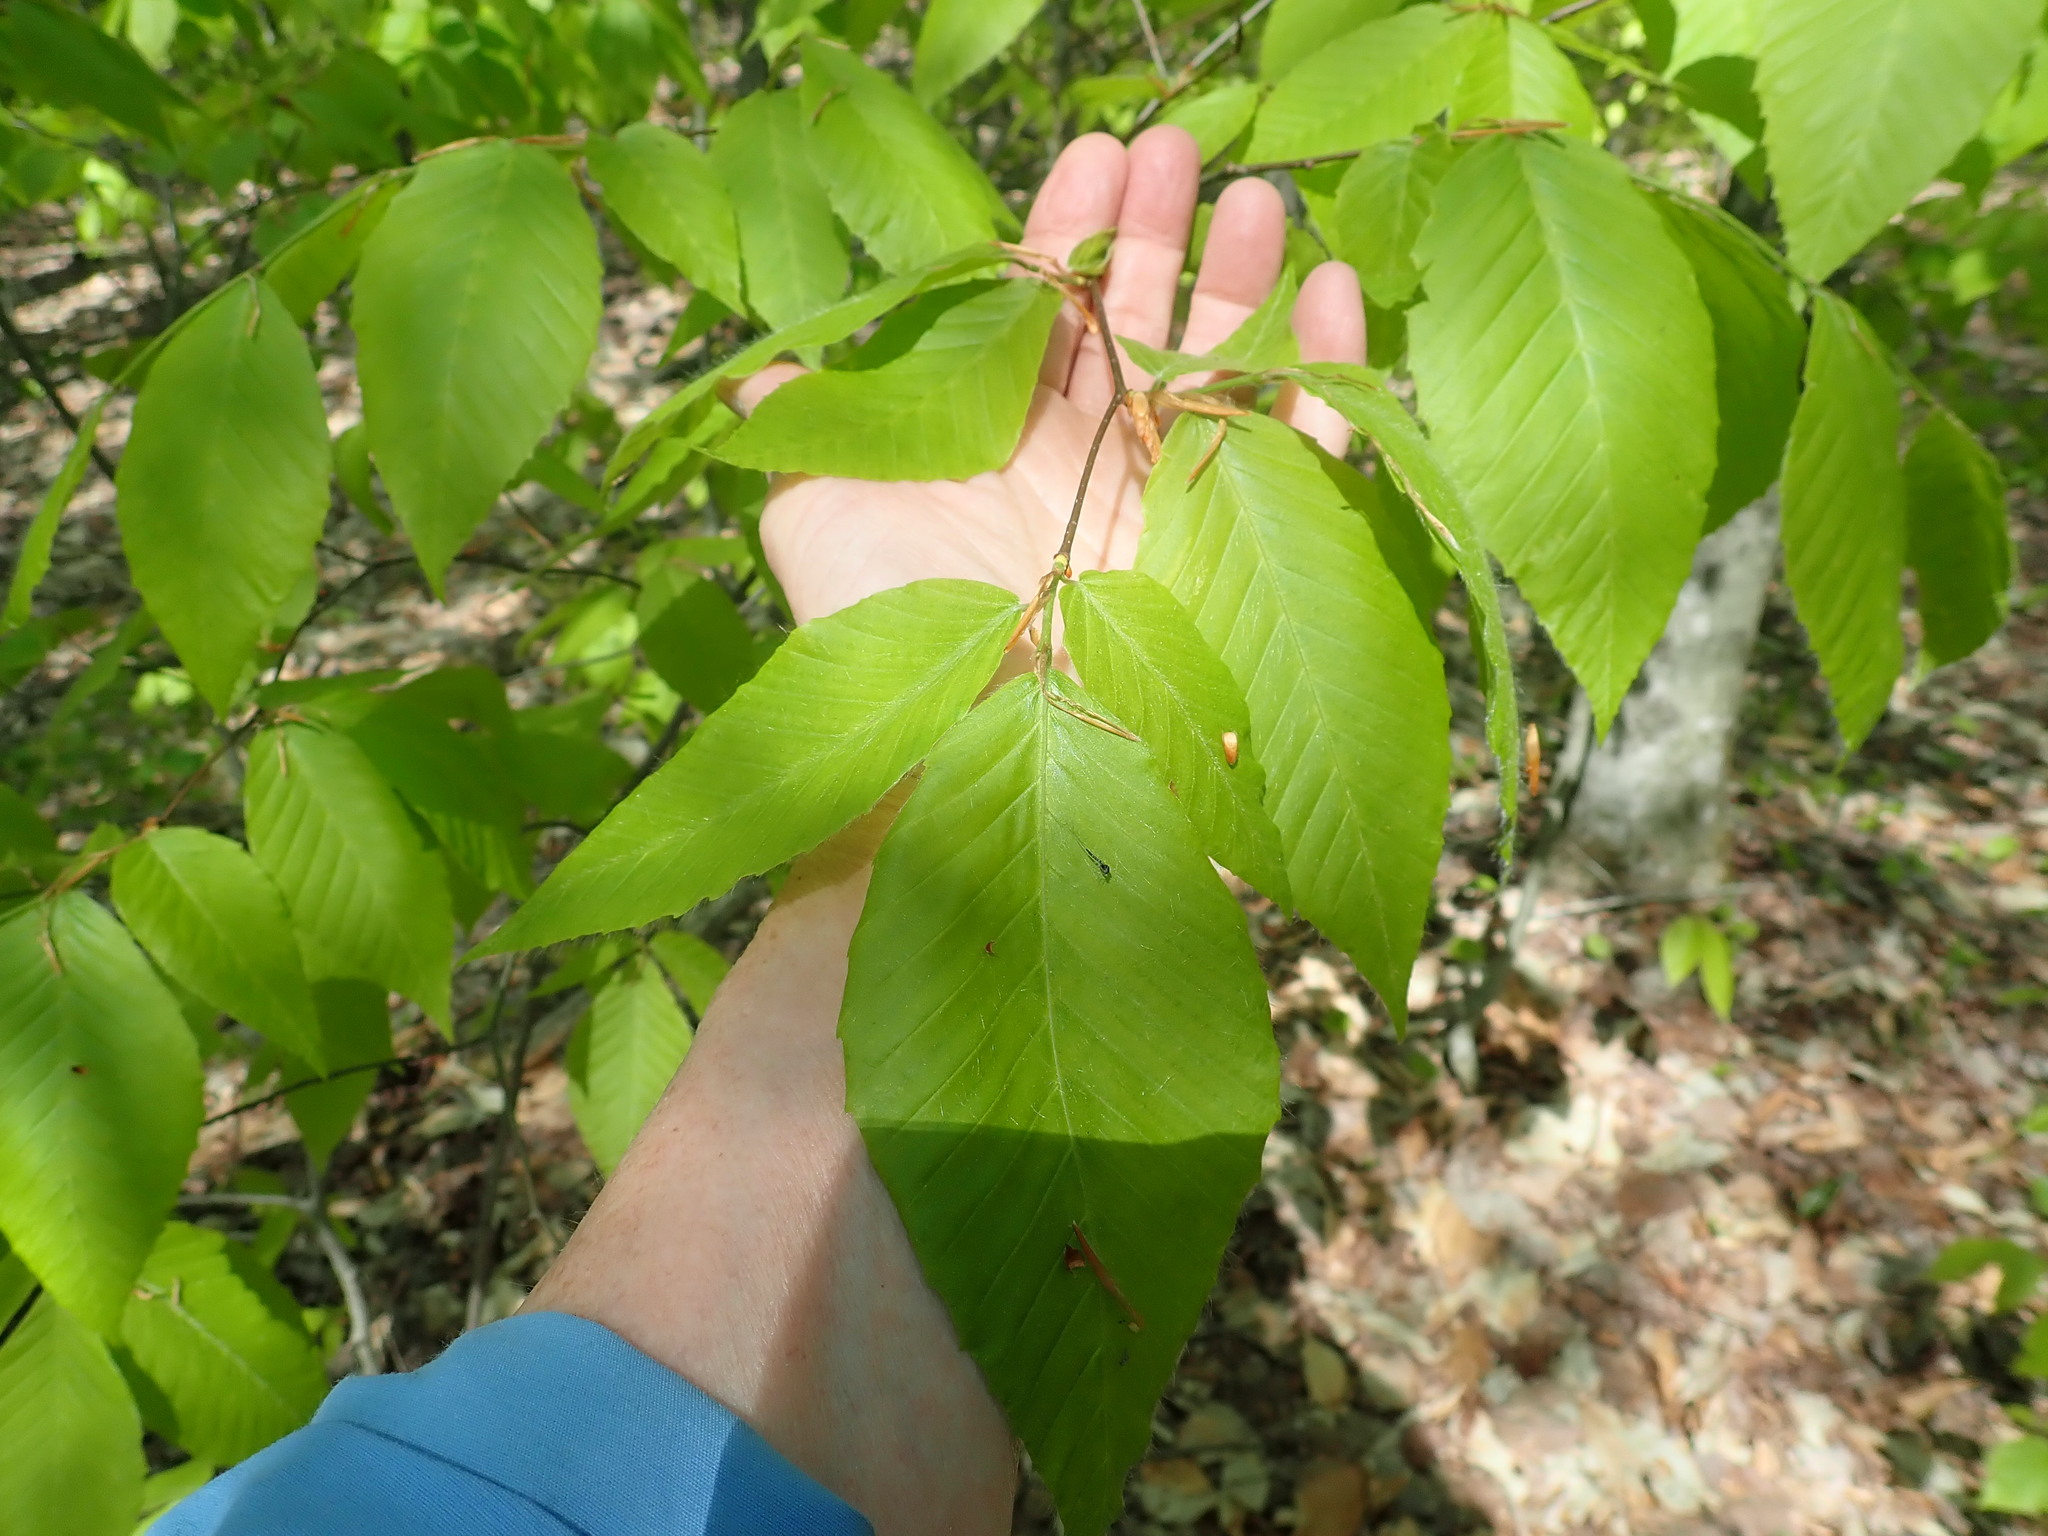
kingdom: Plantae
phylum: Tracheophyta
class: Magnoliopsida
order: Fagales
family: Fagaceae
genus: Fagus
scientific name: Fagus grandifolia
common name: American beech
